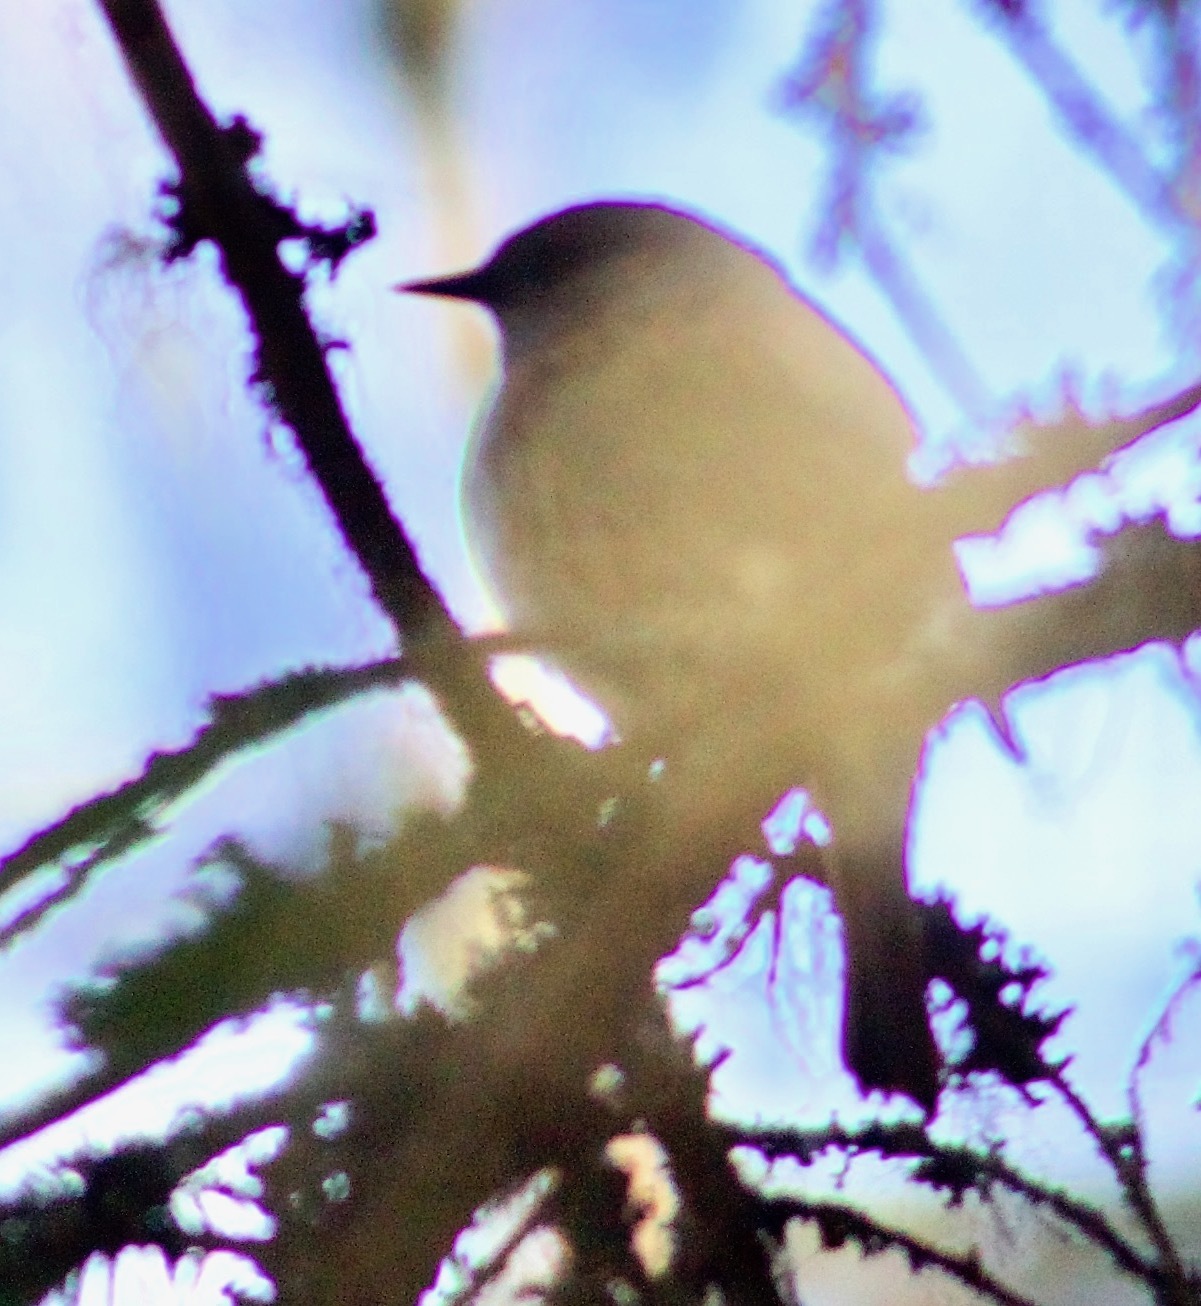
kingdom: Animalia
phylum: Chordata
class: Aves
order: Passeriformes
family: Prunellidae
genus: Prunella
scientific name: Prunella modularis
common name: Dunnock
